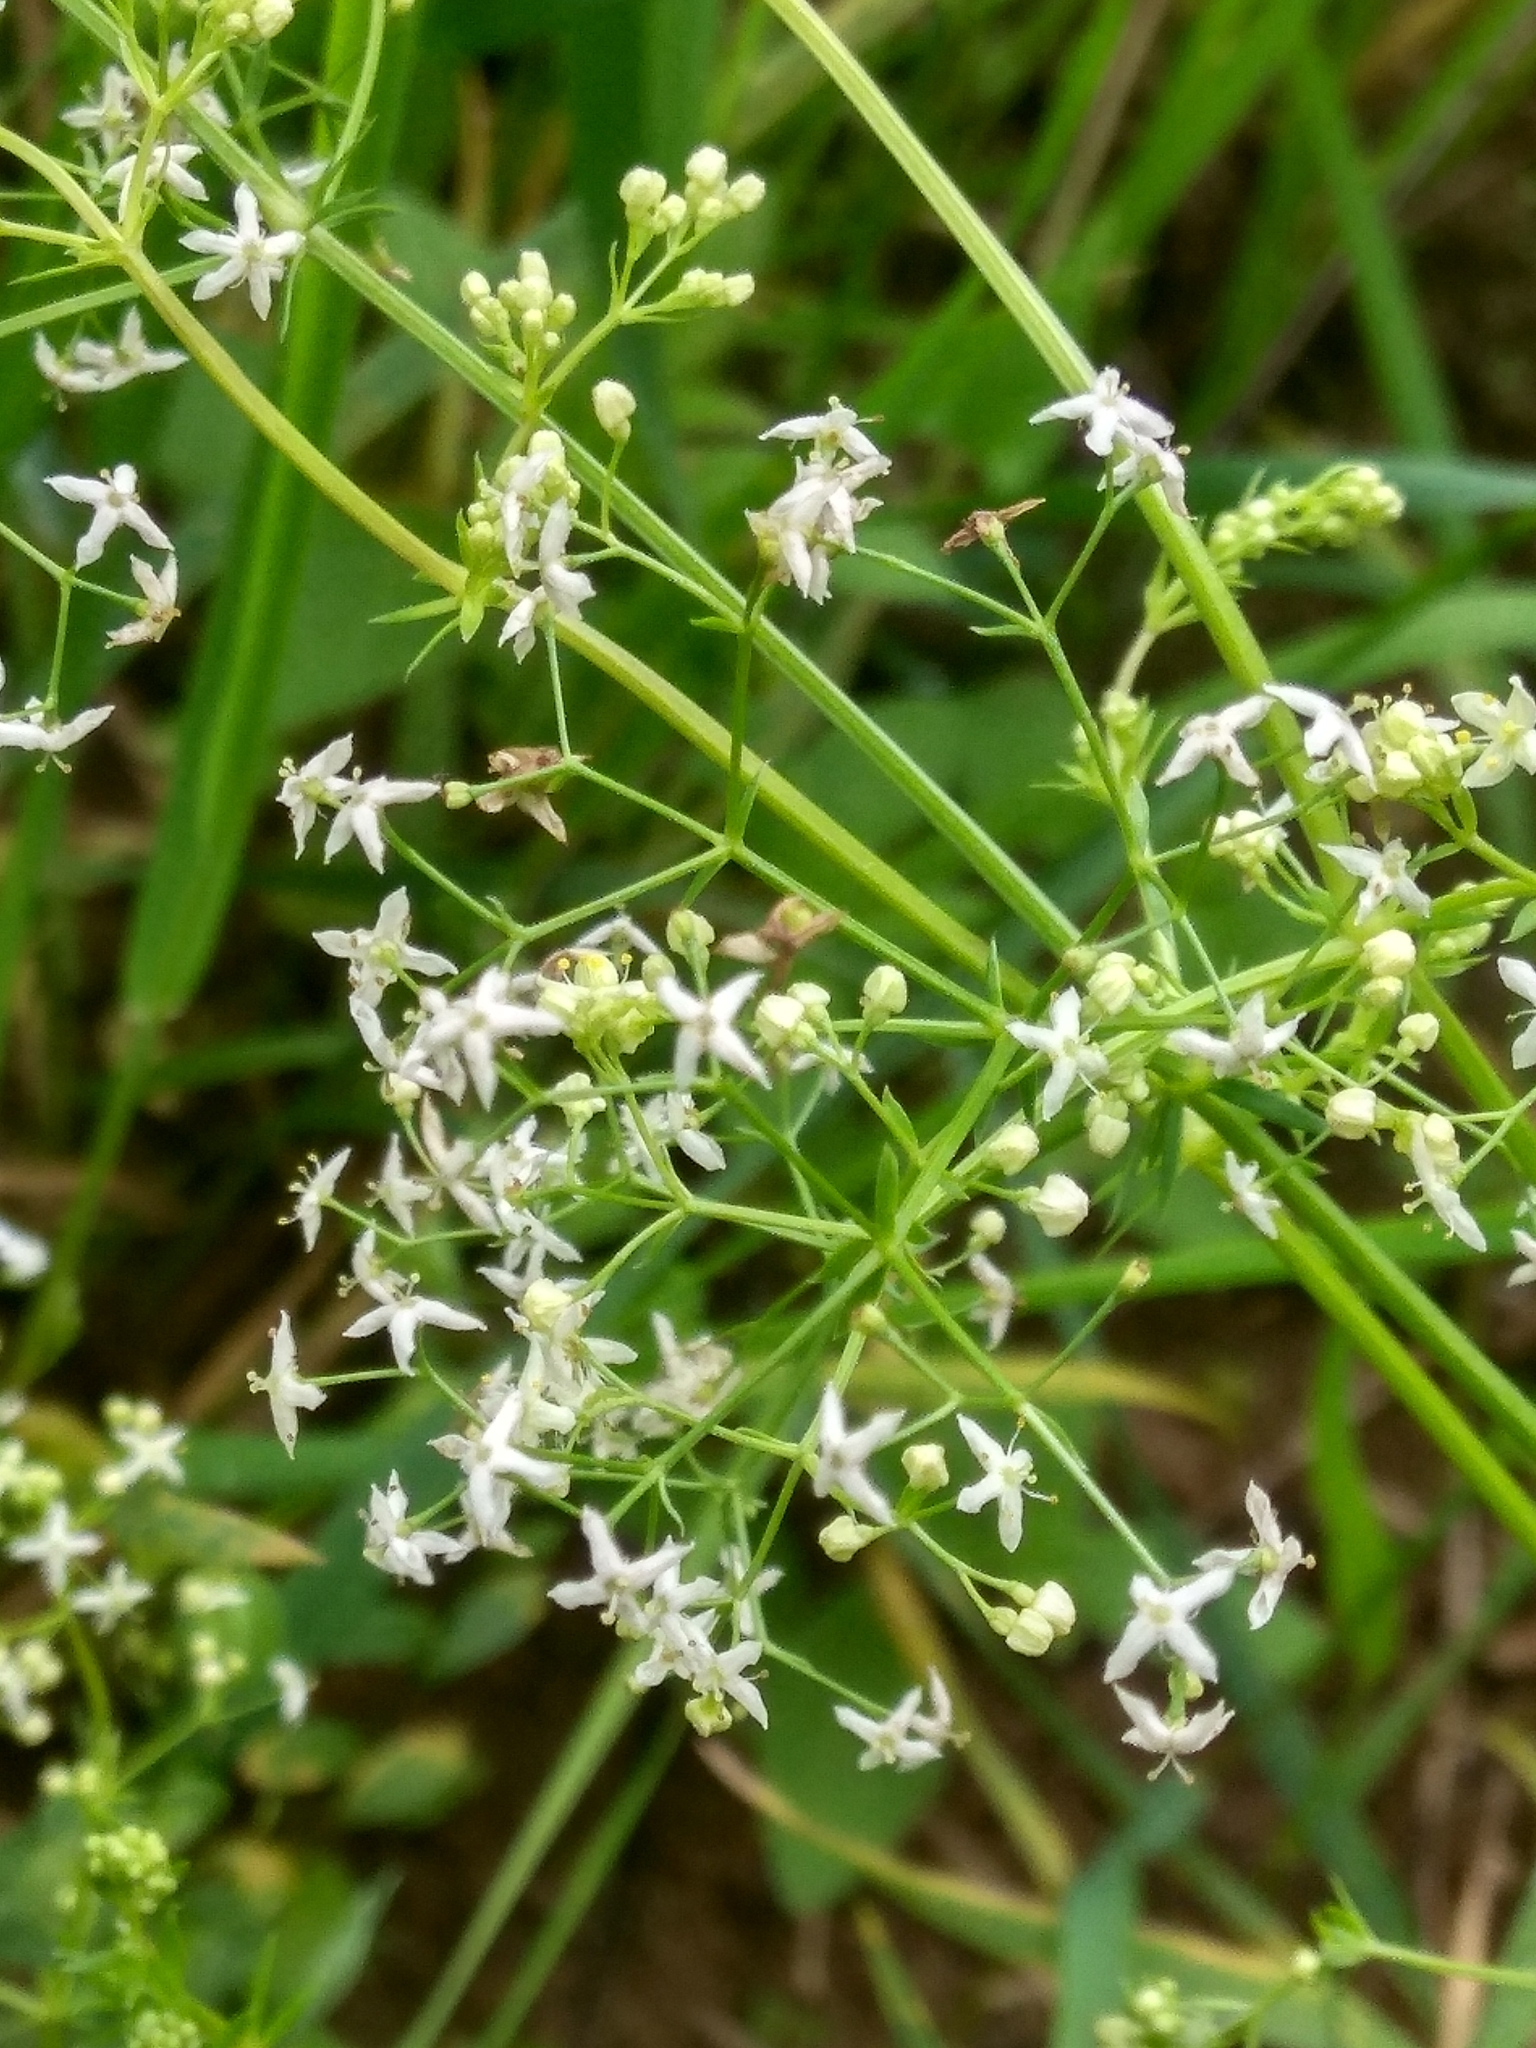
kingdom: Plantae
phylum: Tracheophyta
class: Magnoliopsida
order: Gentianales
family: Rubiaceae
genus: Galium
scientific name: Galium mollugo
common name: Hedge bedstraw
